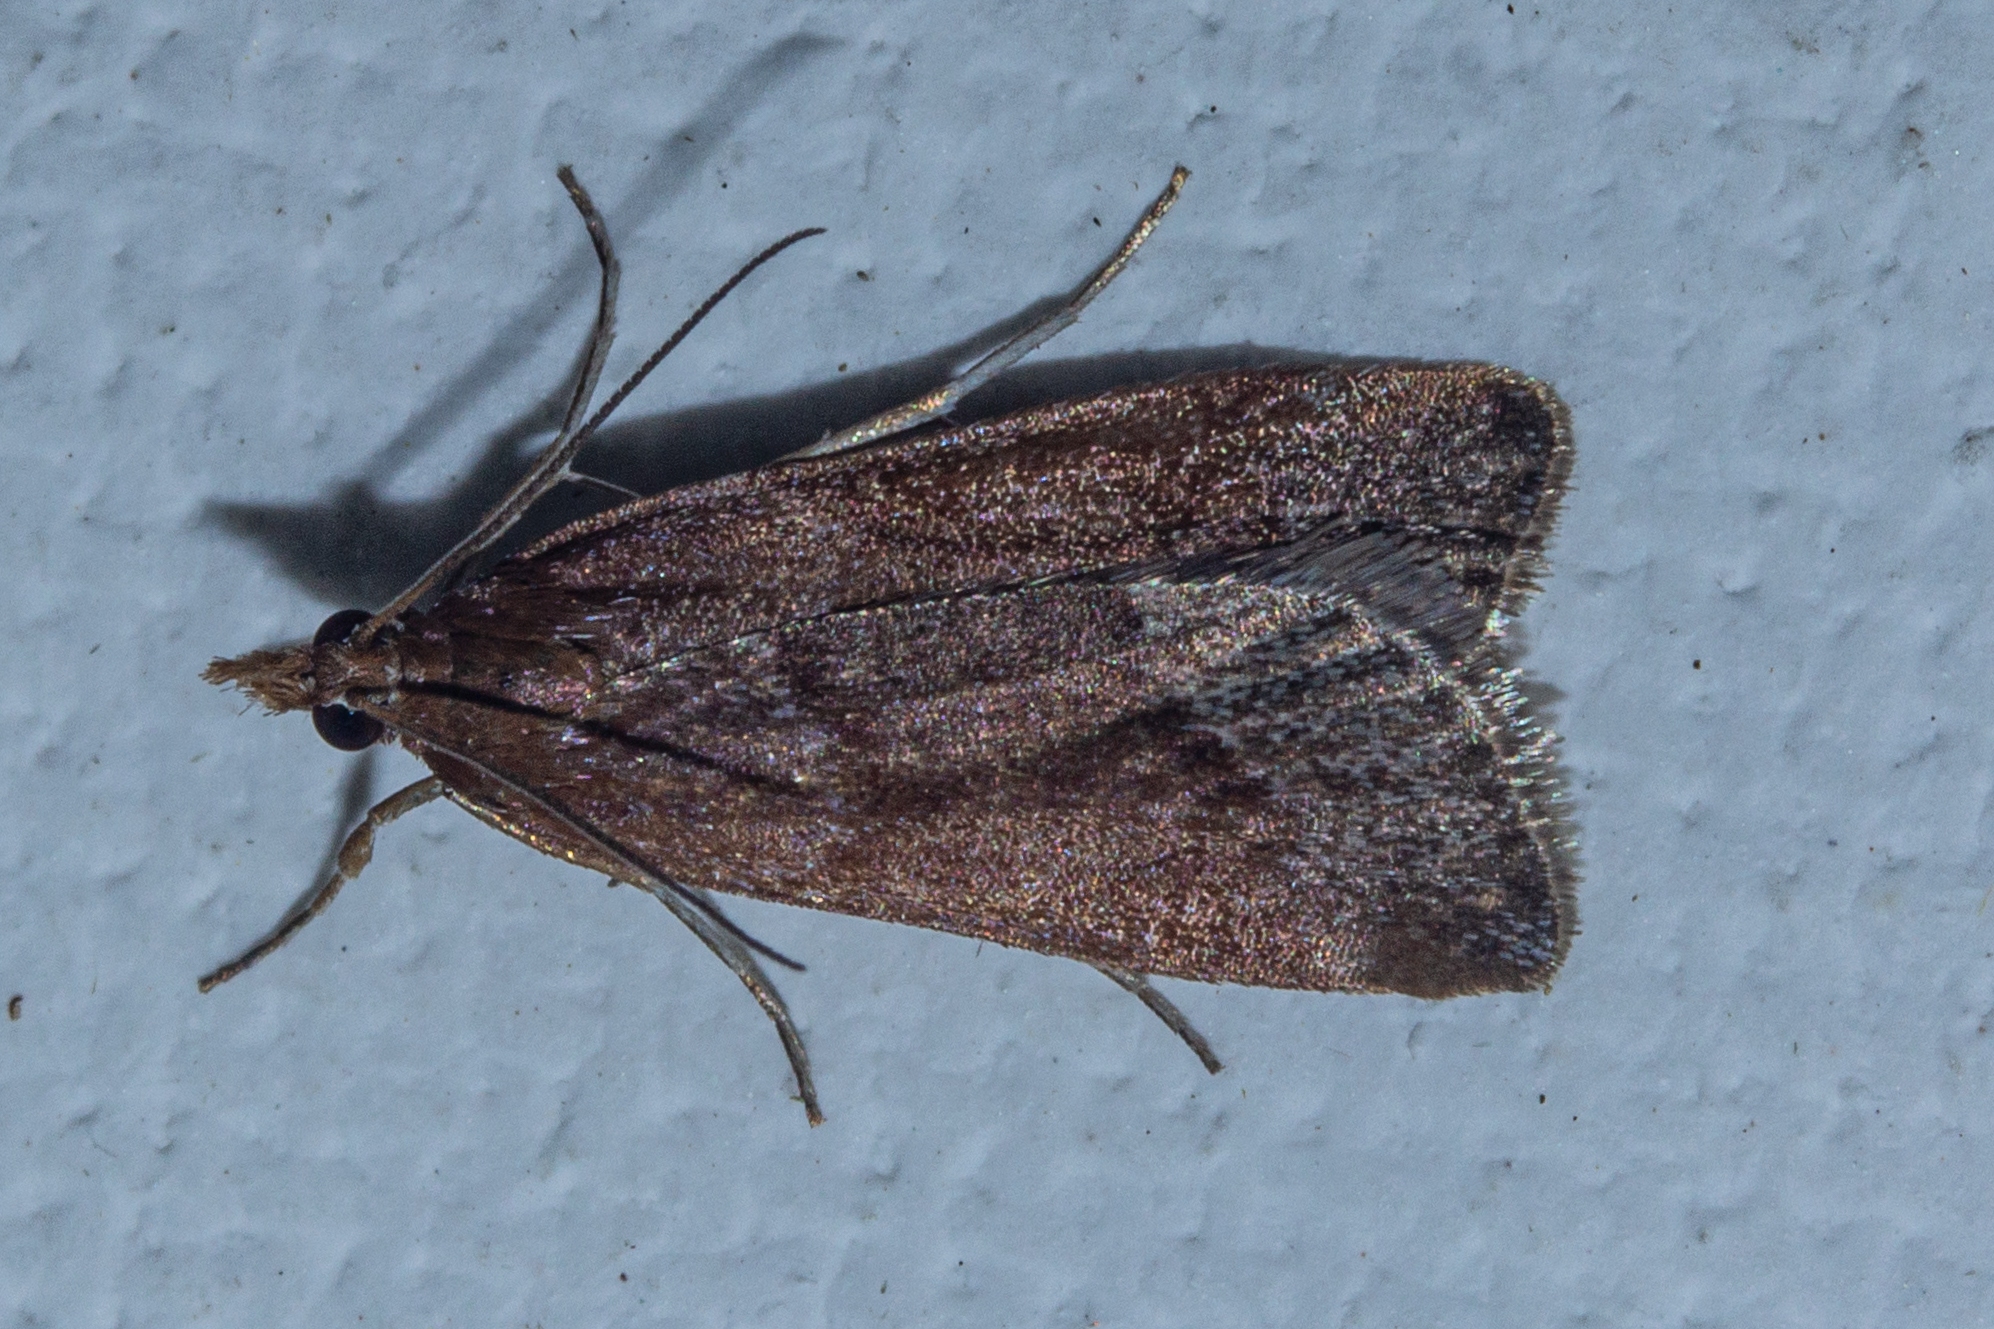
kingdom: Animalia
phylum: Arthropoda
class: Insecta
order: Lepidoptera
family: Crambidae
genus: Eudonia
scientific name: Eudonia feredayi
